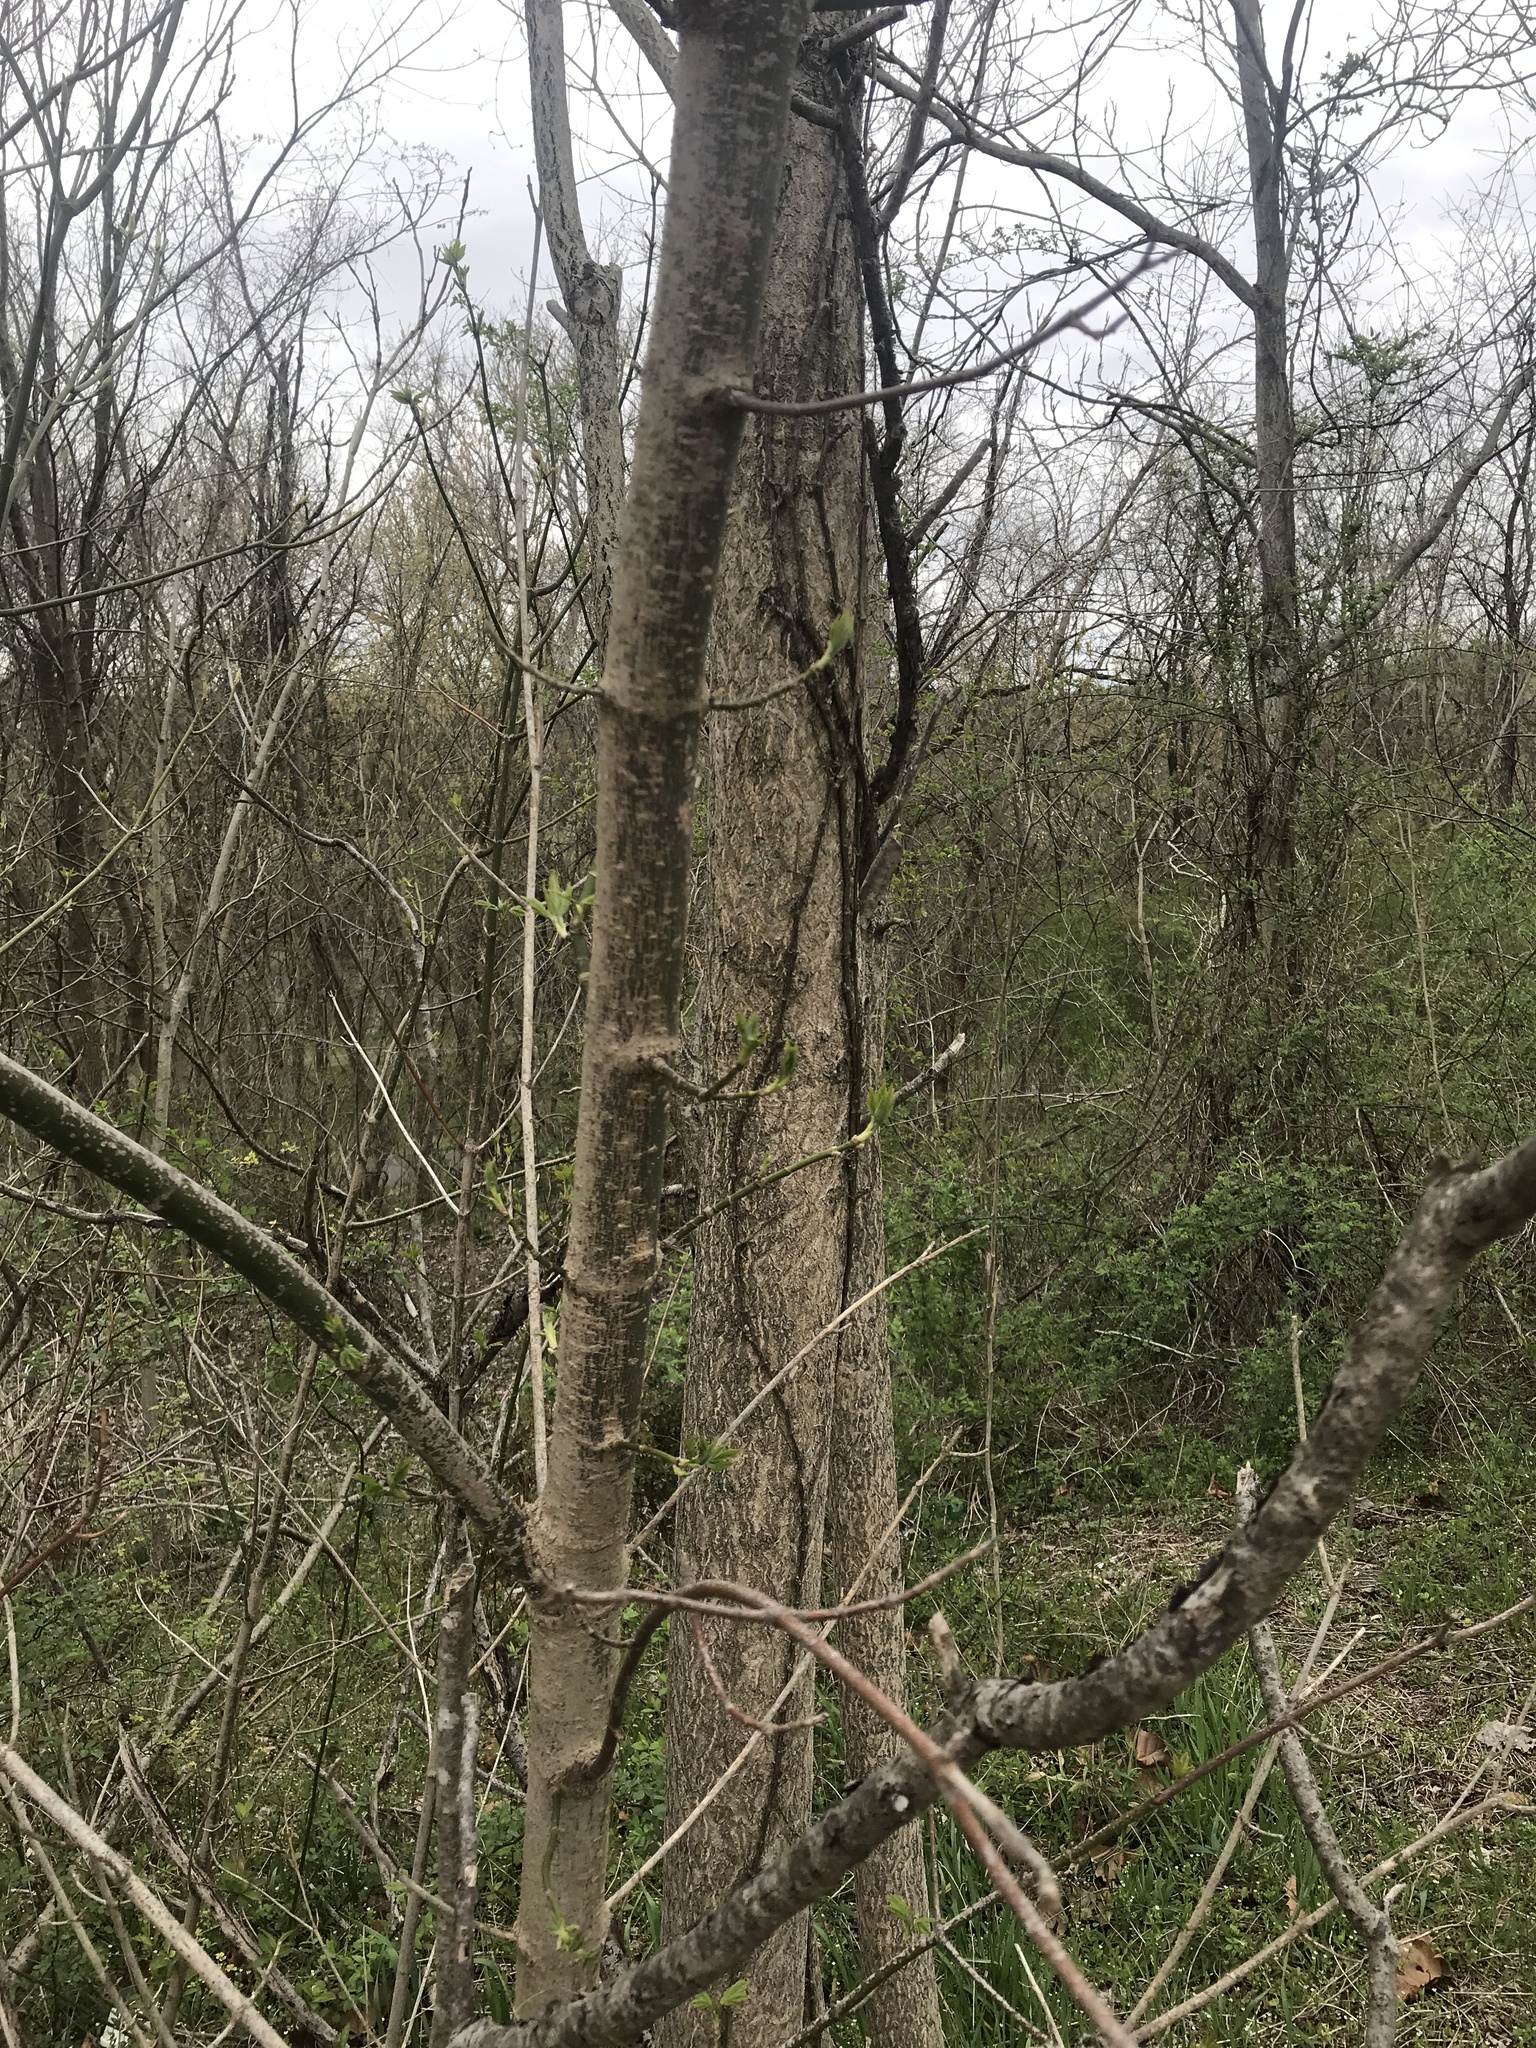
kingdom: Plantae
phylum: Tracheophyta
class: Magnoliopsida
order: Sapindales
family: Sapindaceae
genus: Acer
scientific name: Acer negundo
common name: Ashleaf maple
